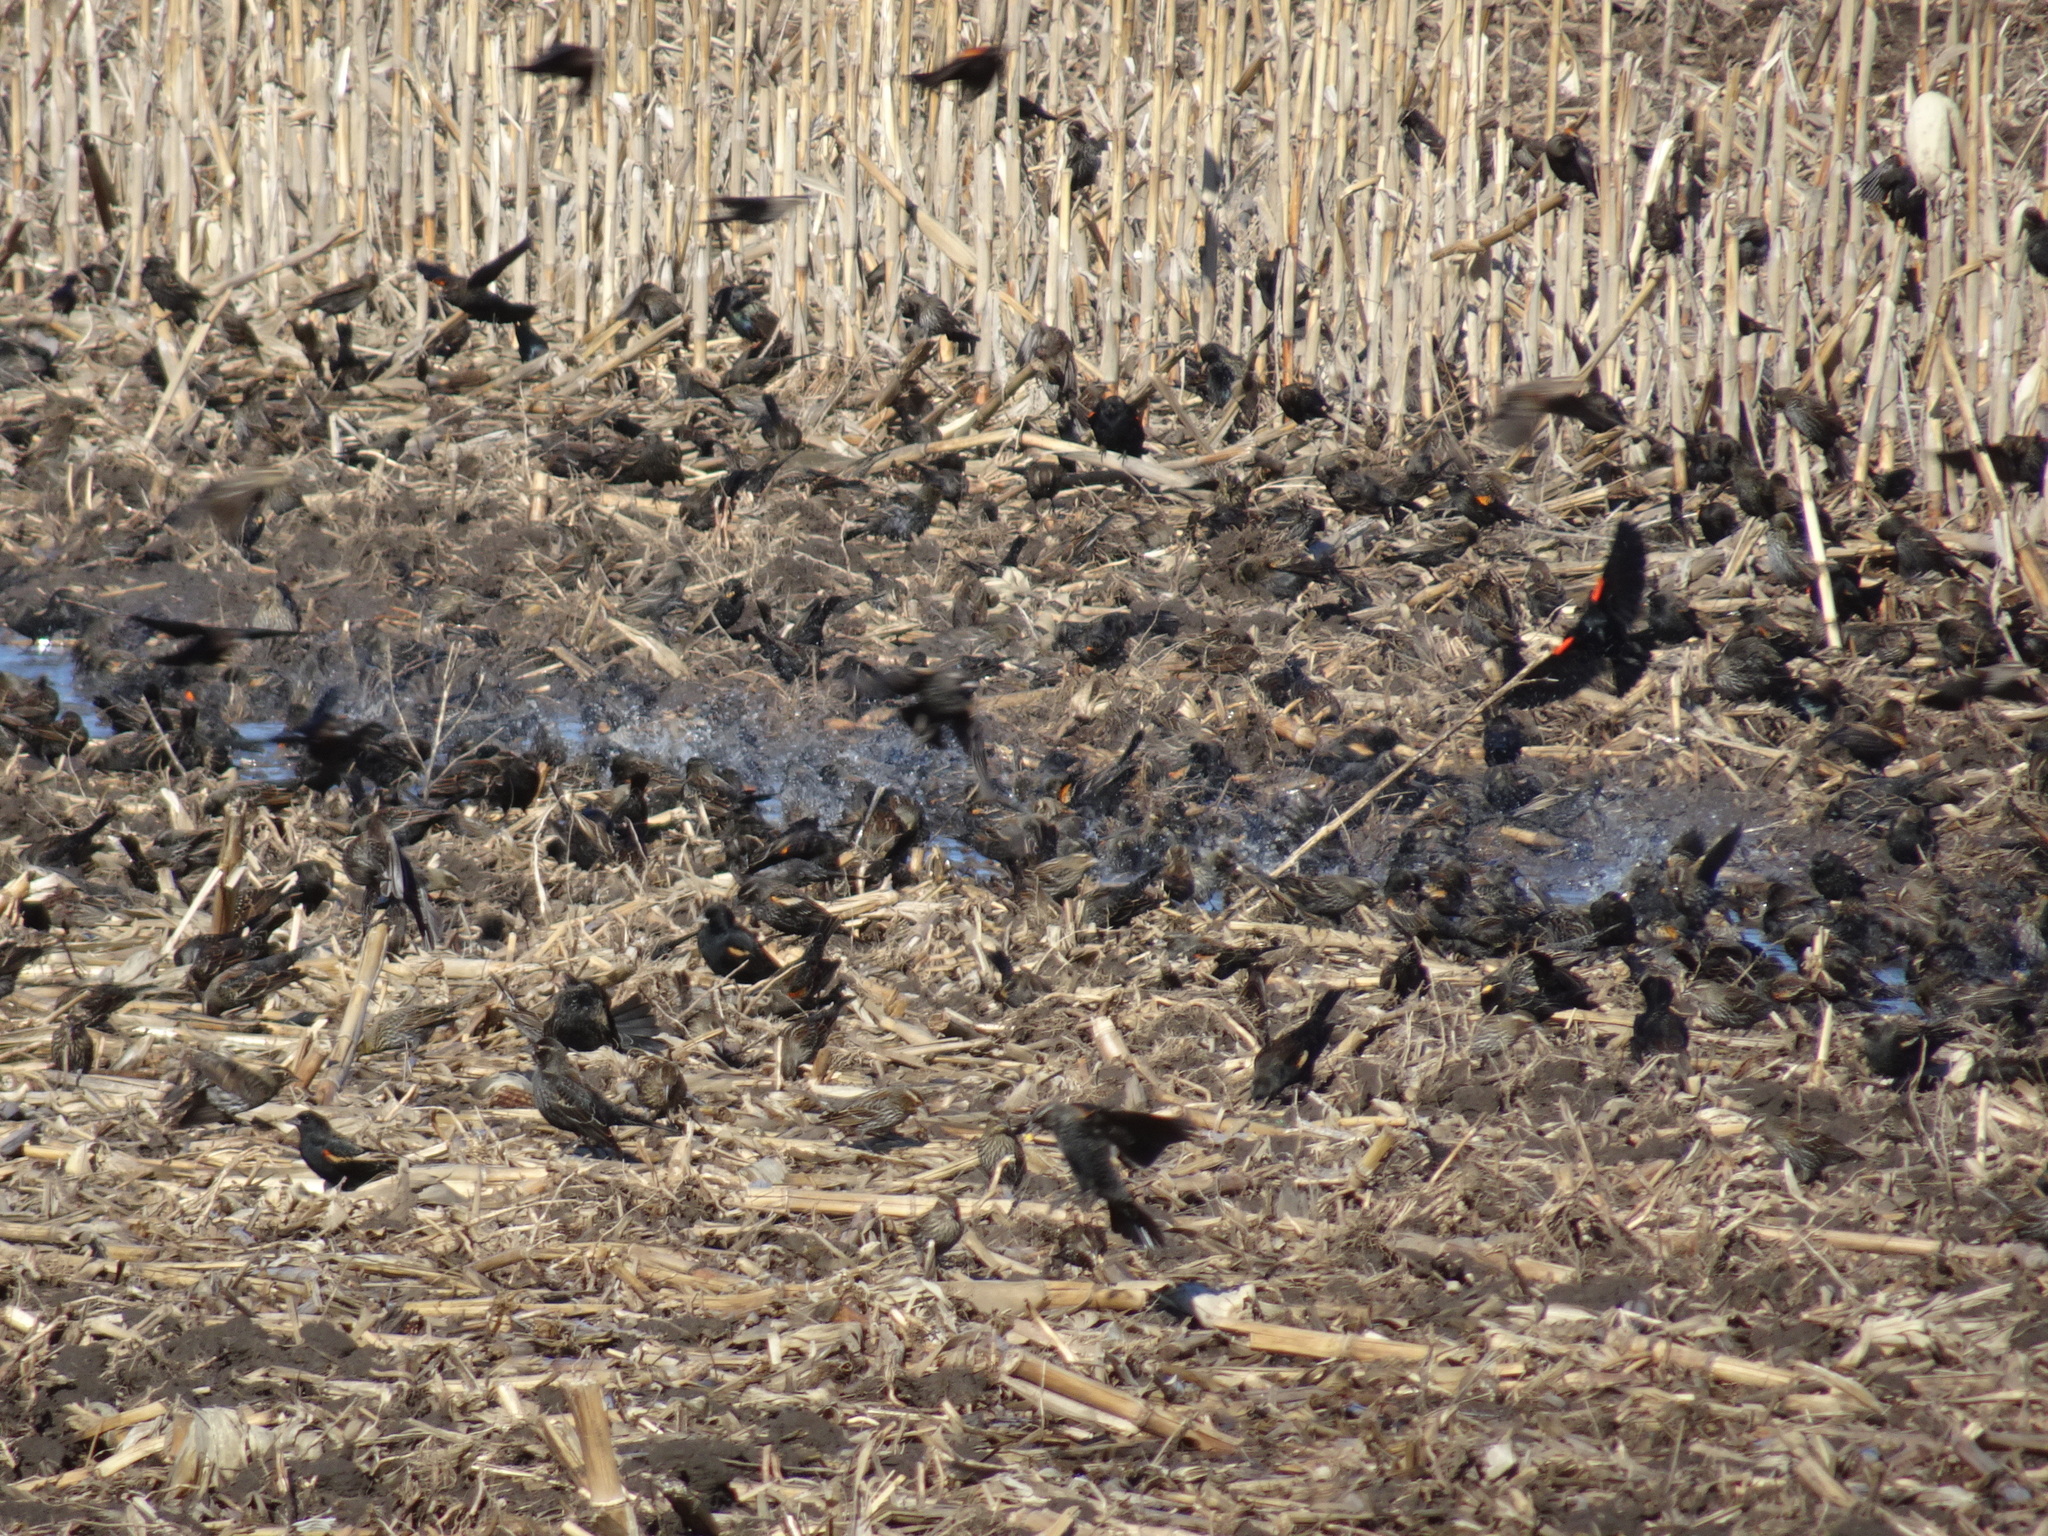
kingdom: Animalia
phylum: Chordata
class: Aves
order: Passeriformes
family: Icteridae
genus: Agelaius
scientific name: Agelaius phoeniceus
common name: Red-winged blackbird
